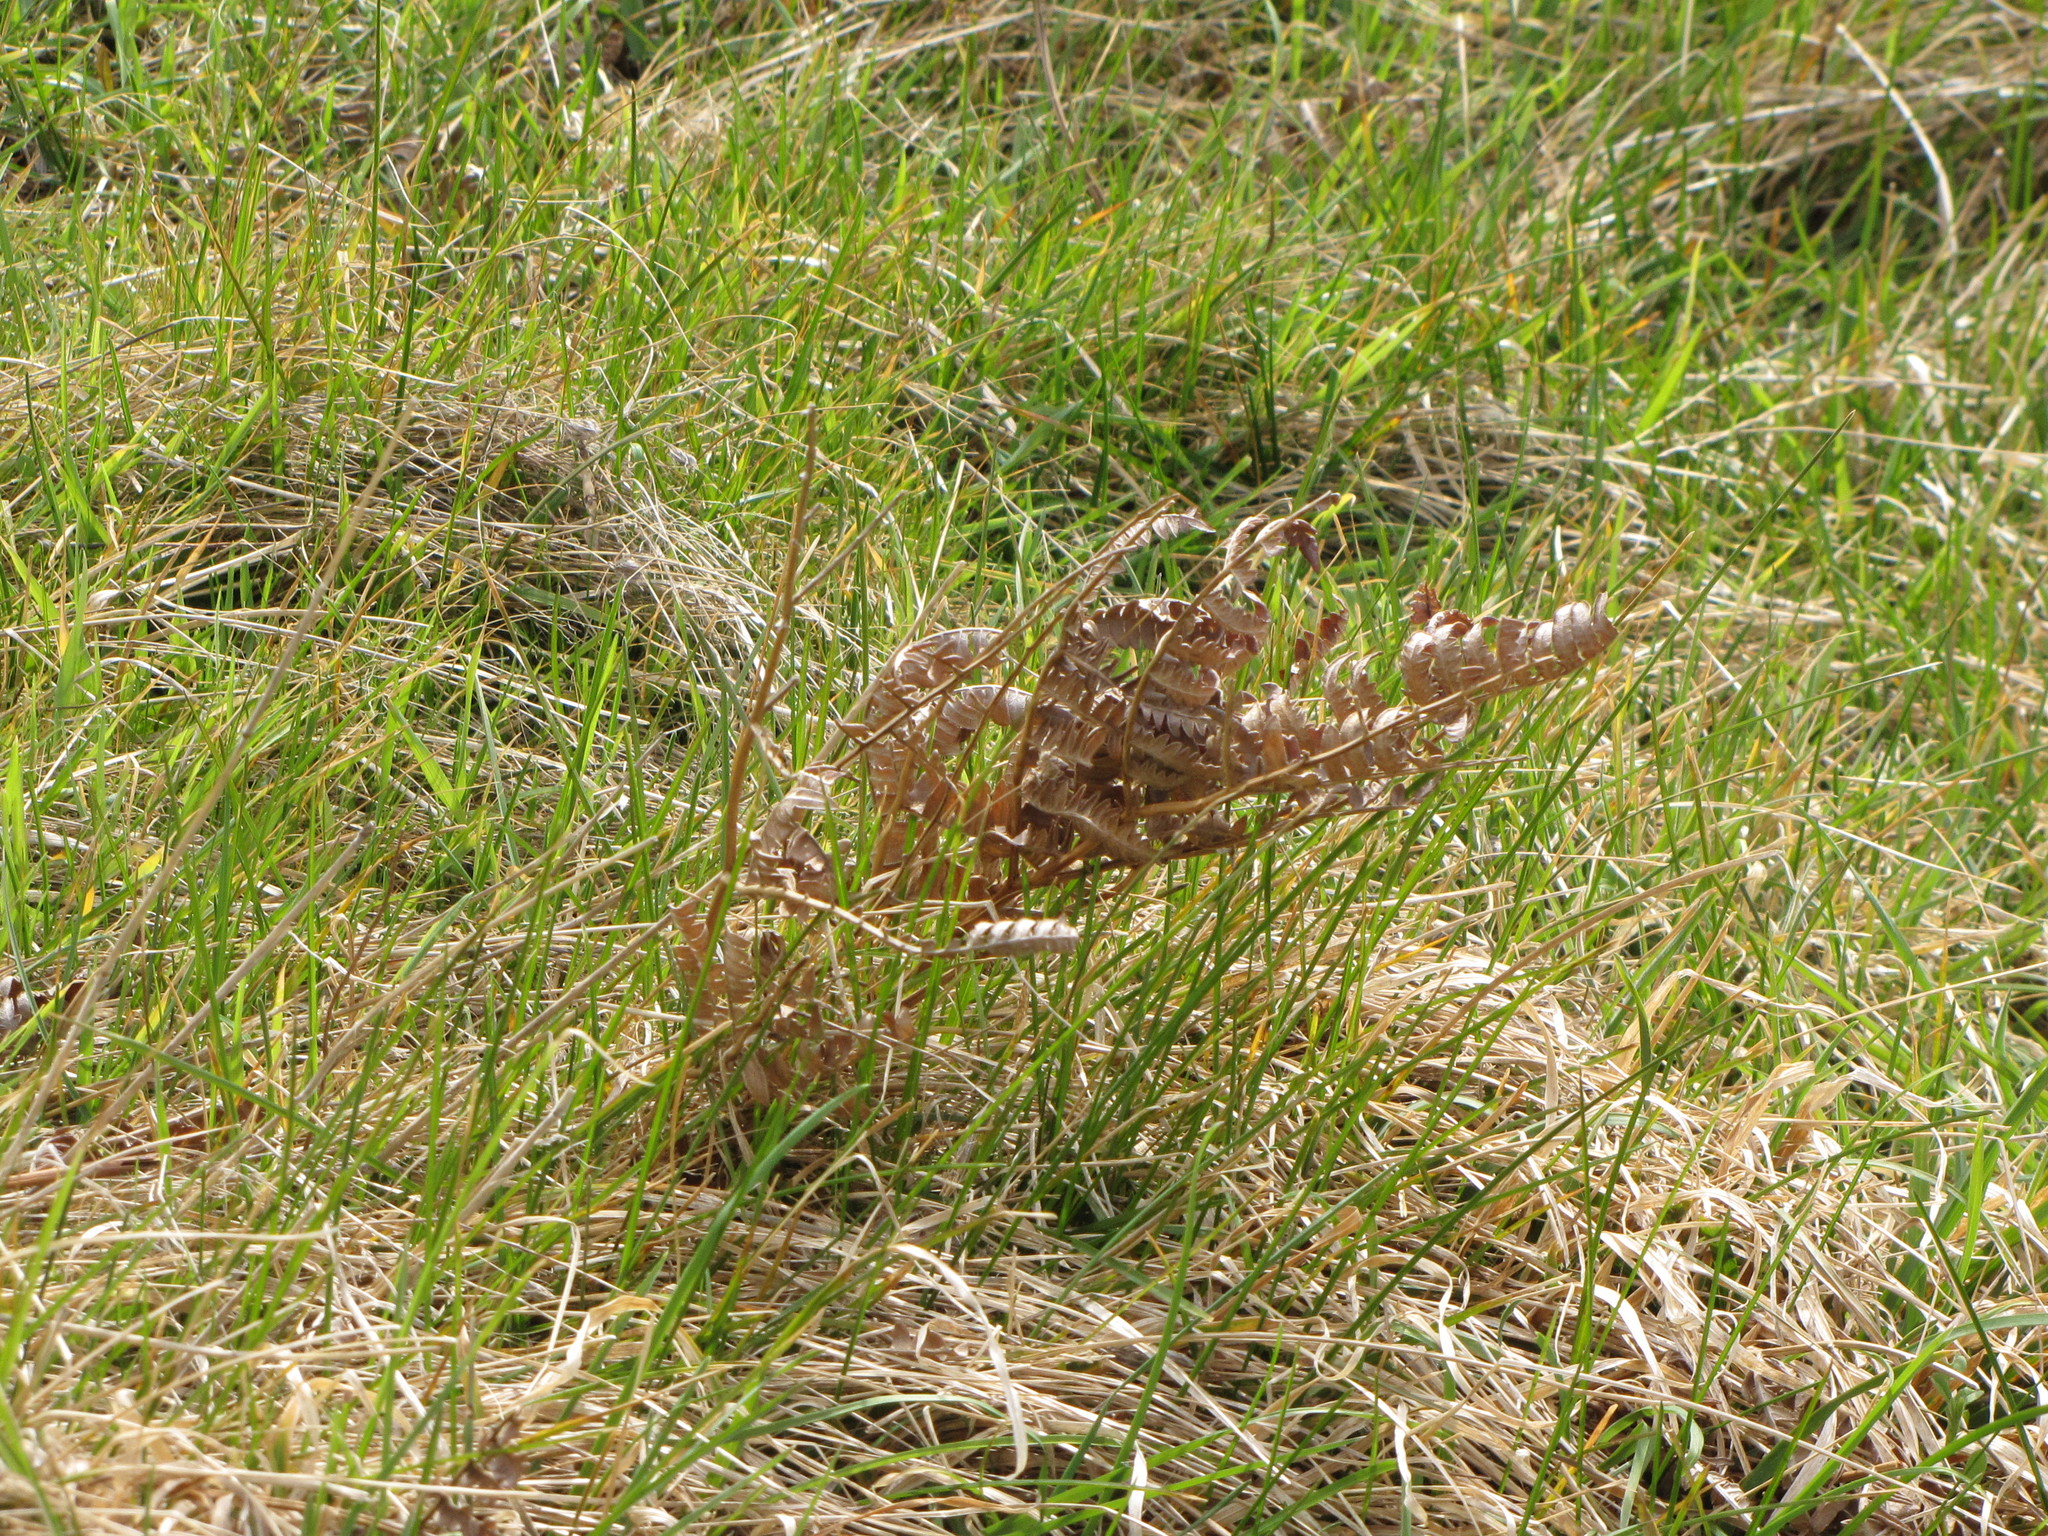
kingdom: Plantae
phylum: Tracheophyta
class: Polypodiopsida
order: Polypodiales
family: Dennstaedtiaceae
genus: Pteridium
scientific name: Pteridium aquilinum
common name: Bracken
